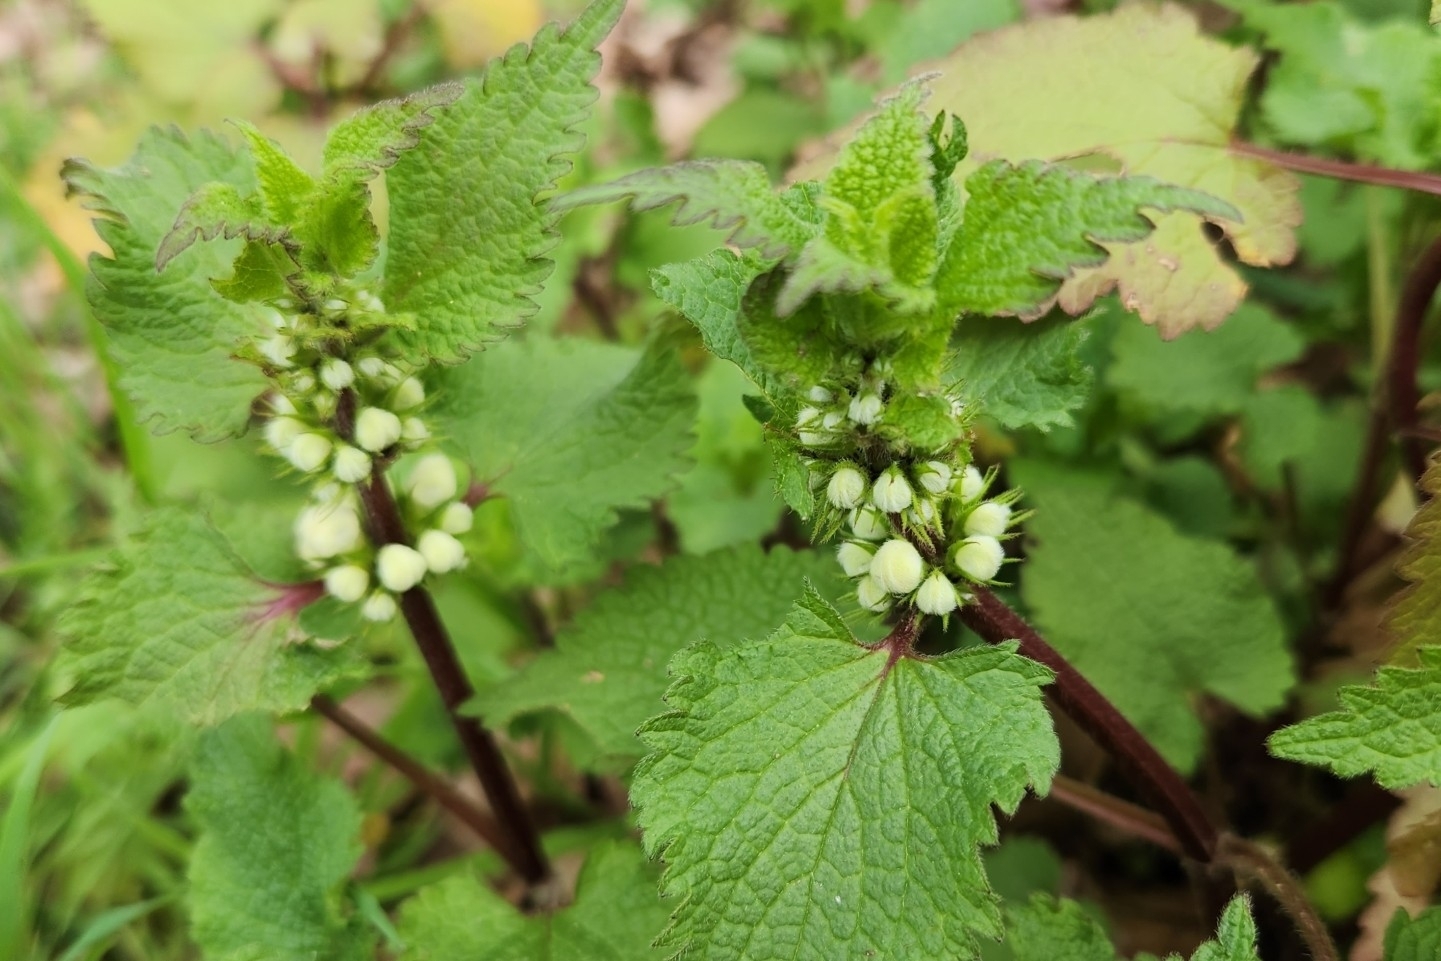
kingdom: Plantae
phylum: Tracheophyta
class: Magnoliopsida
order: Lamiales
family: Lamiaceae
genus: Lamium
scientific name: Lamium album
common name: White dead-nettle
